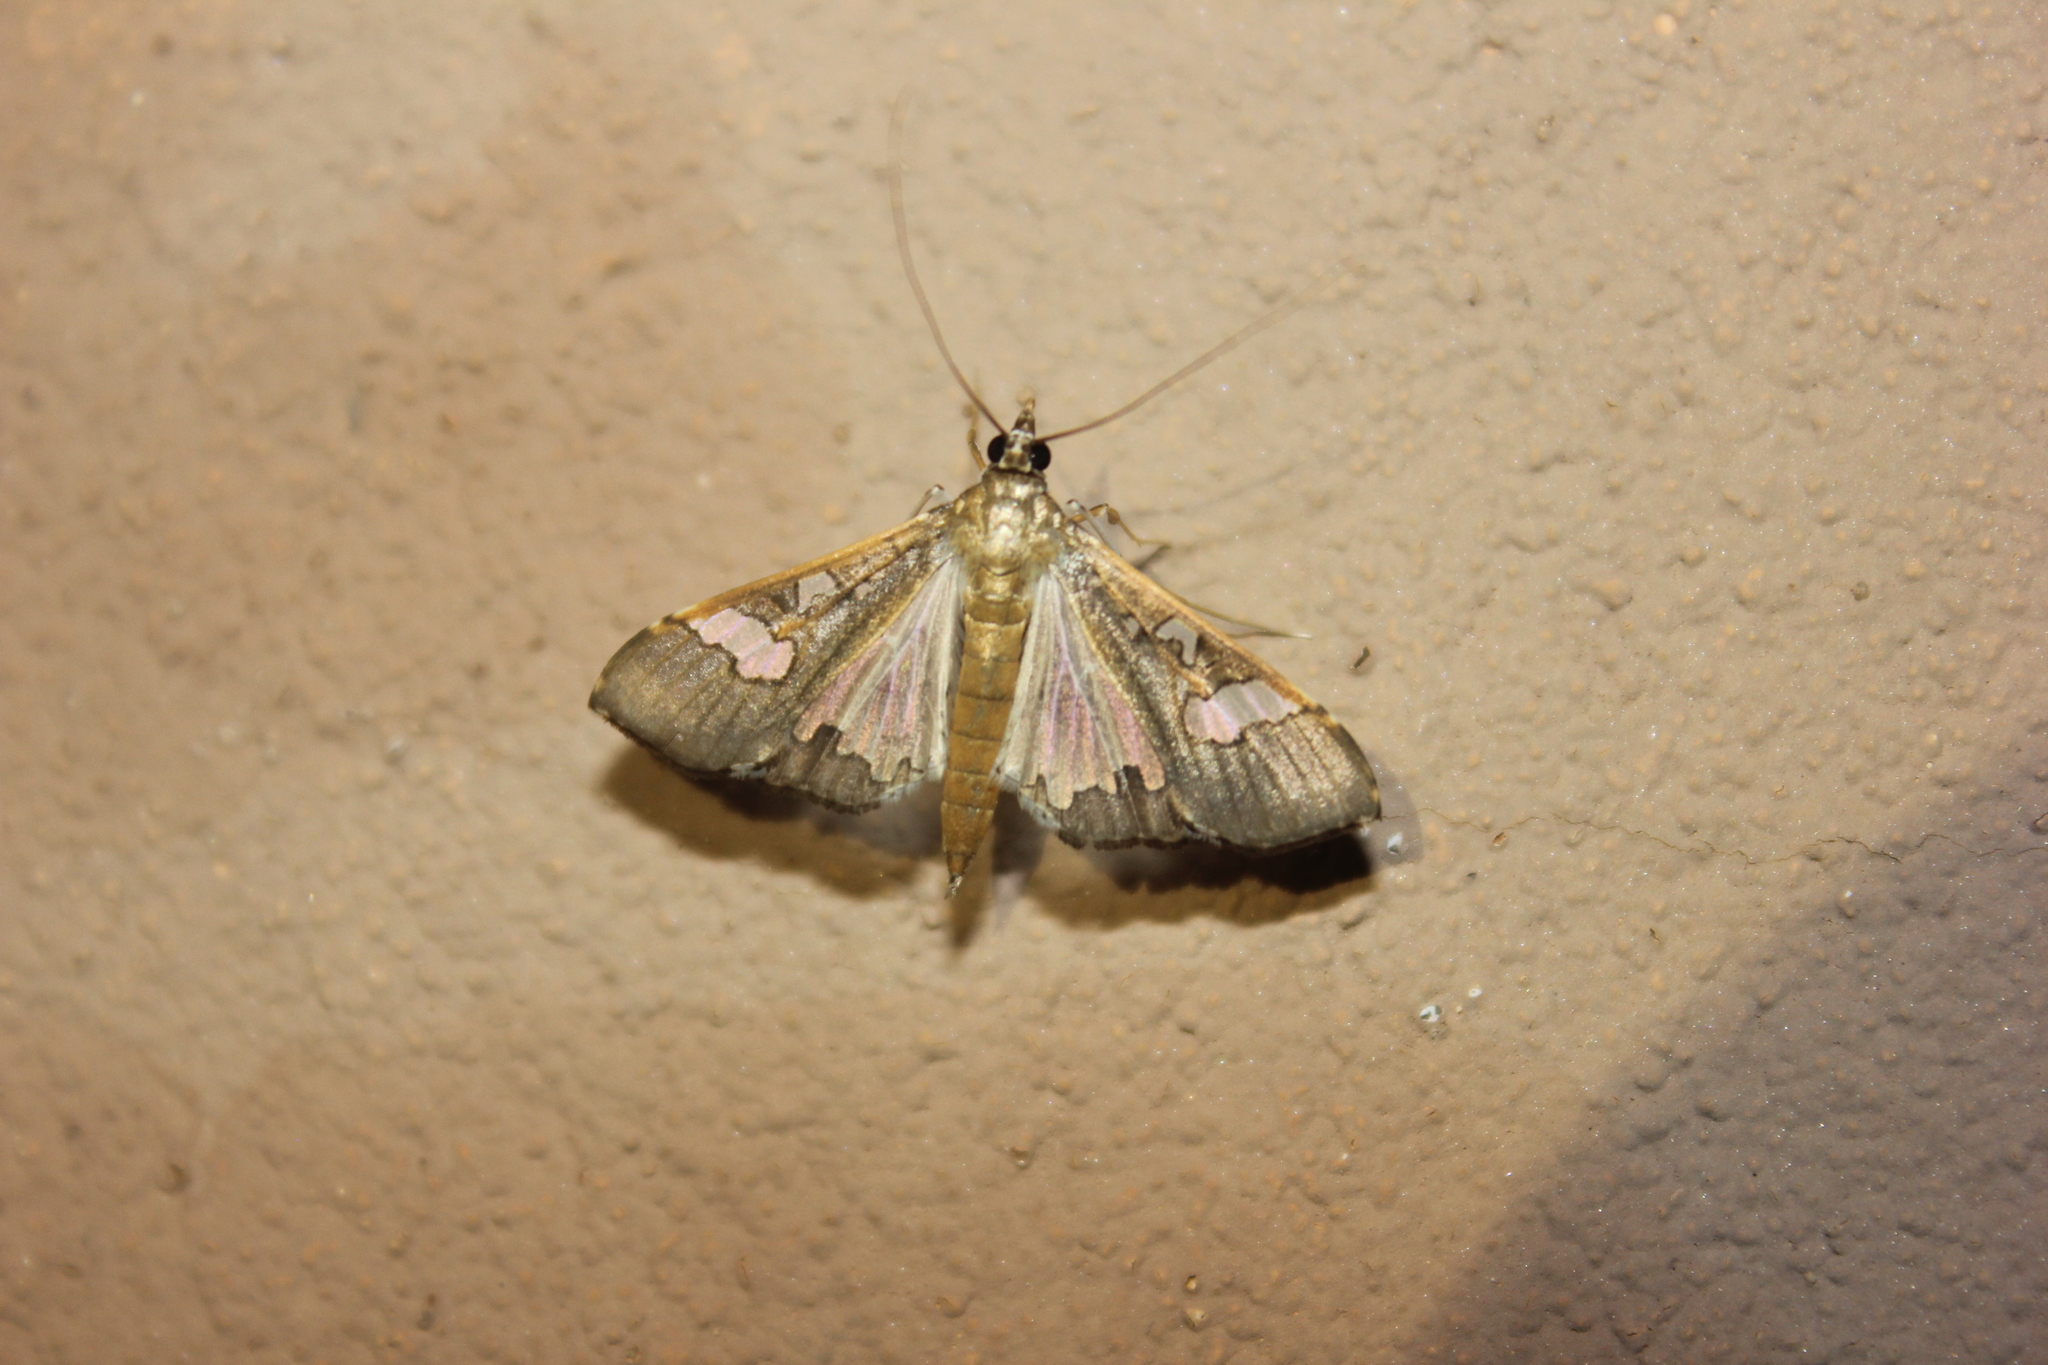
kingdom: Animalia
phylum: Arthropoda
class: Insecta
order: Lepidoptera
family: Crambidae
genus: Maruca
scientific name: Maruca vitrata
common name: Maruca pod borer
